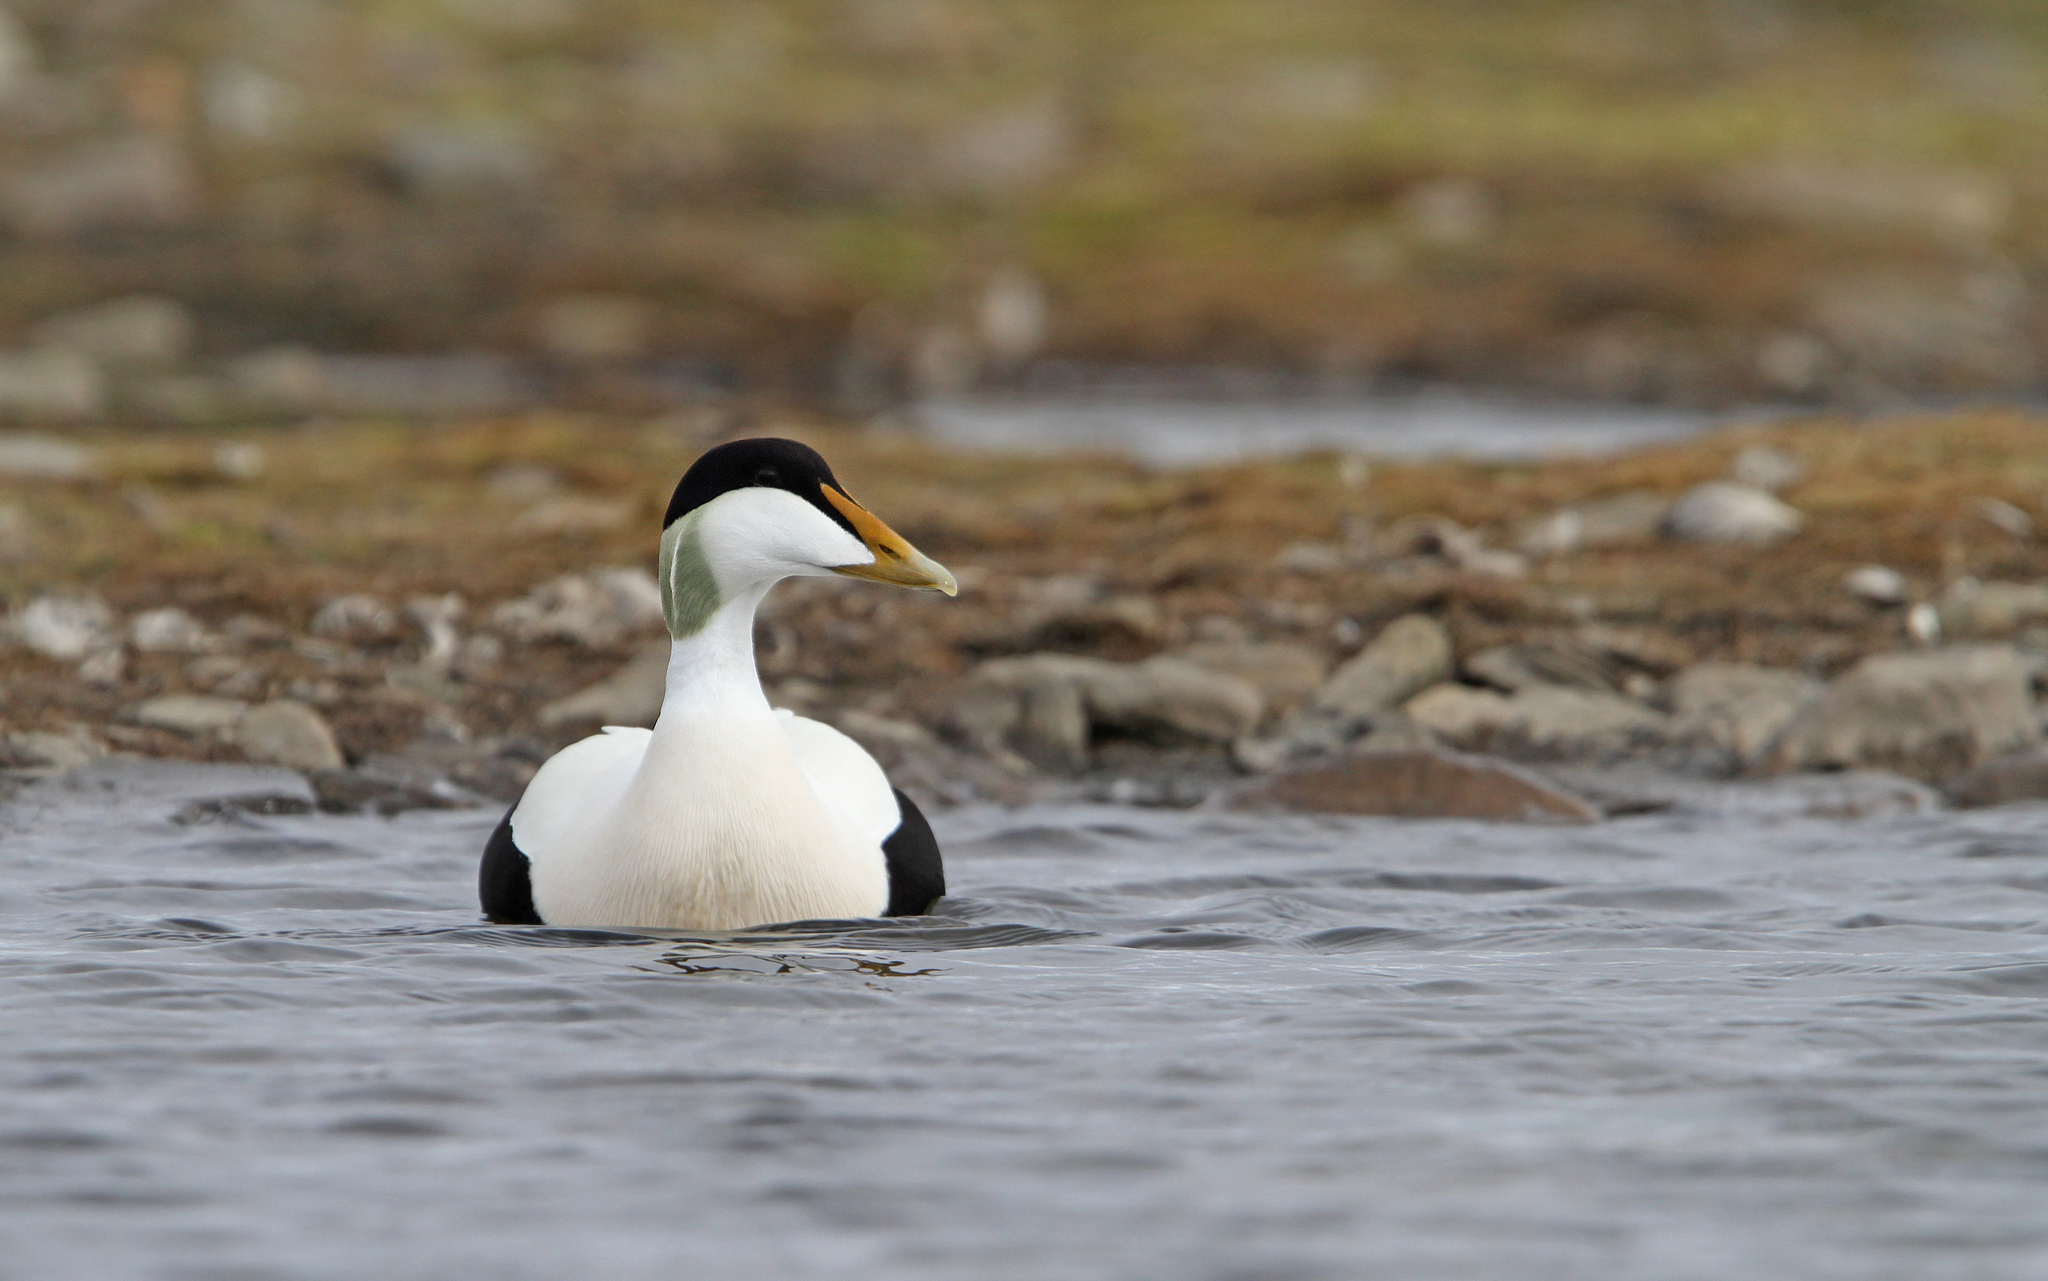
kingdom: Animalia
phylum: Chordata
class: Aves
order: Anseriformes
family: Anatidae
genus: Somateria
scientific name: Somateria mollissima
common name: Common eider
